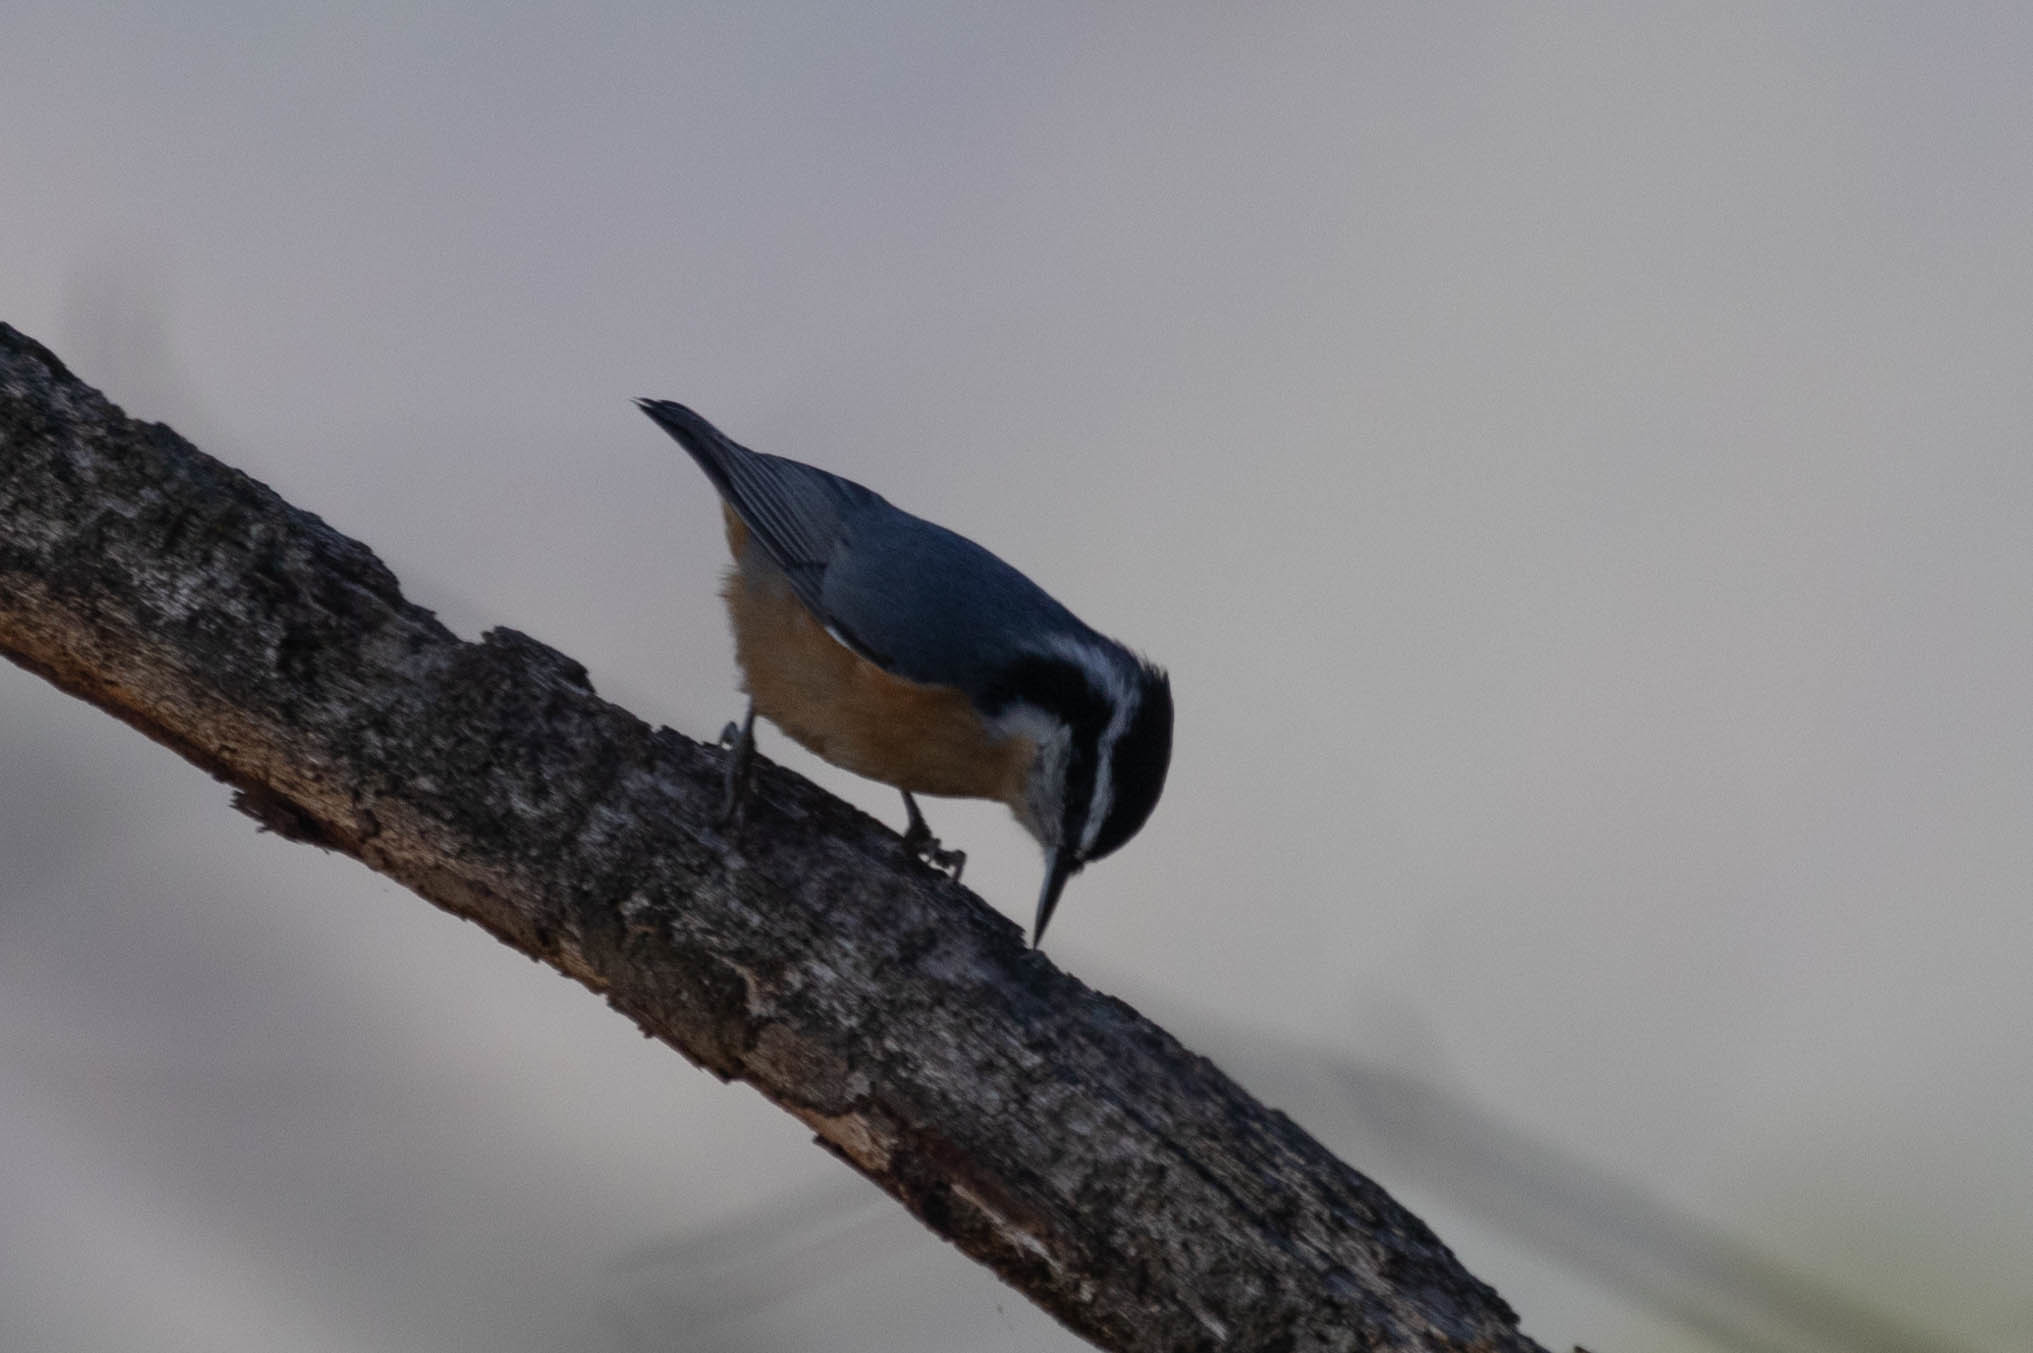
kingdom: Animalia
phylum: Chordata
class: Aves
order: Passeriformes
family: Sittidae
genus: Sitta
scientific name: Sitta canadensis
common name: Red-breasted nuthatch
